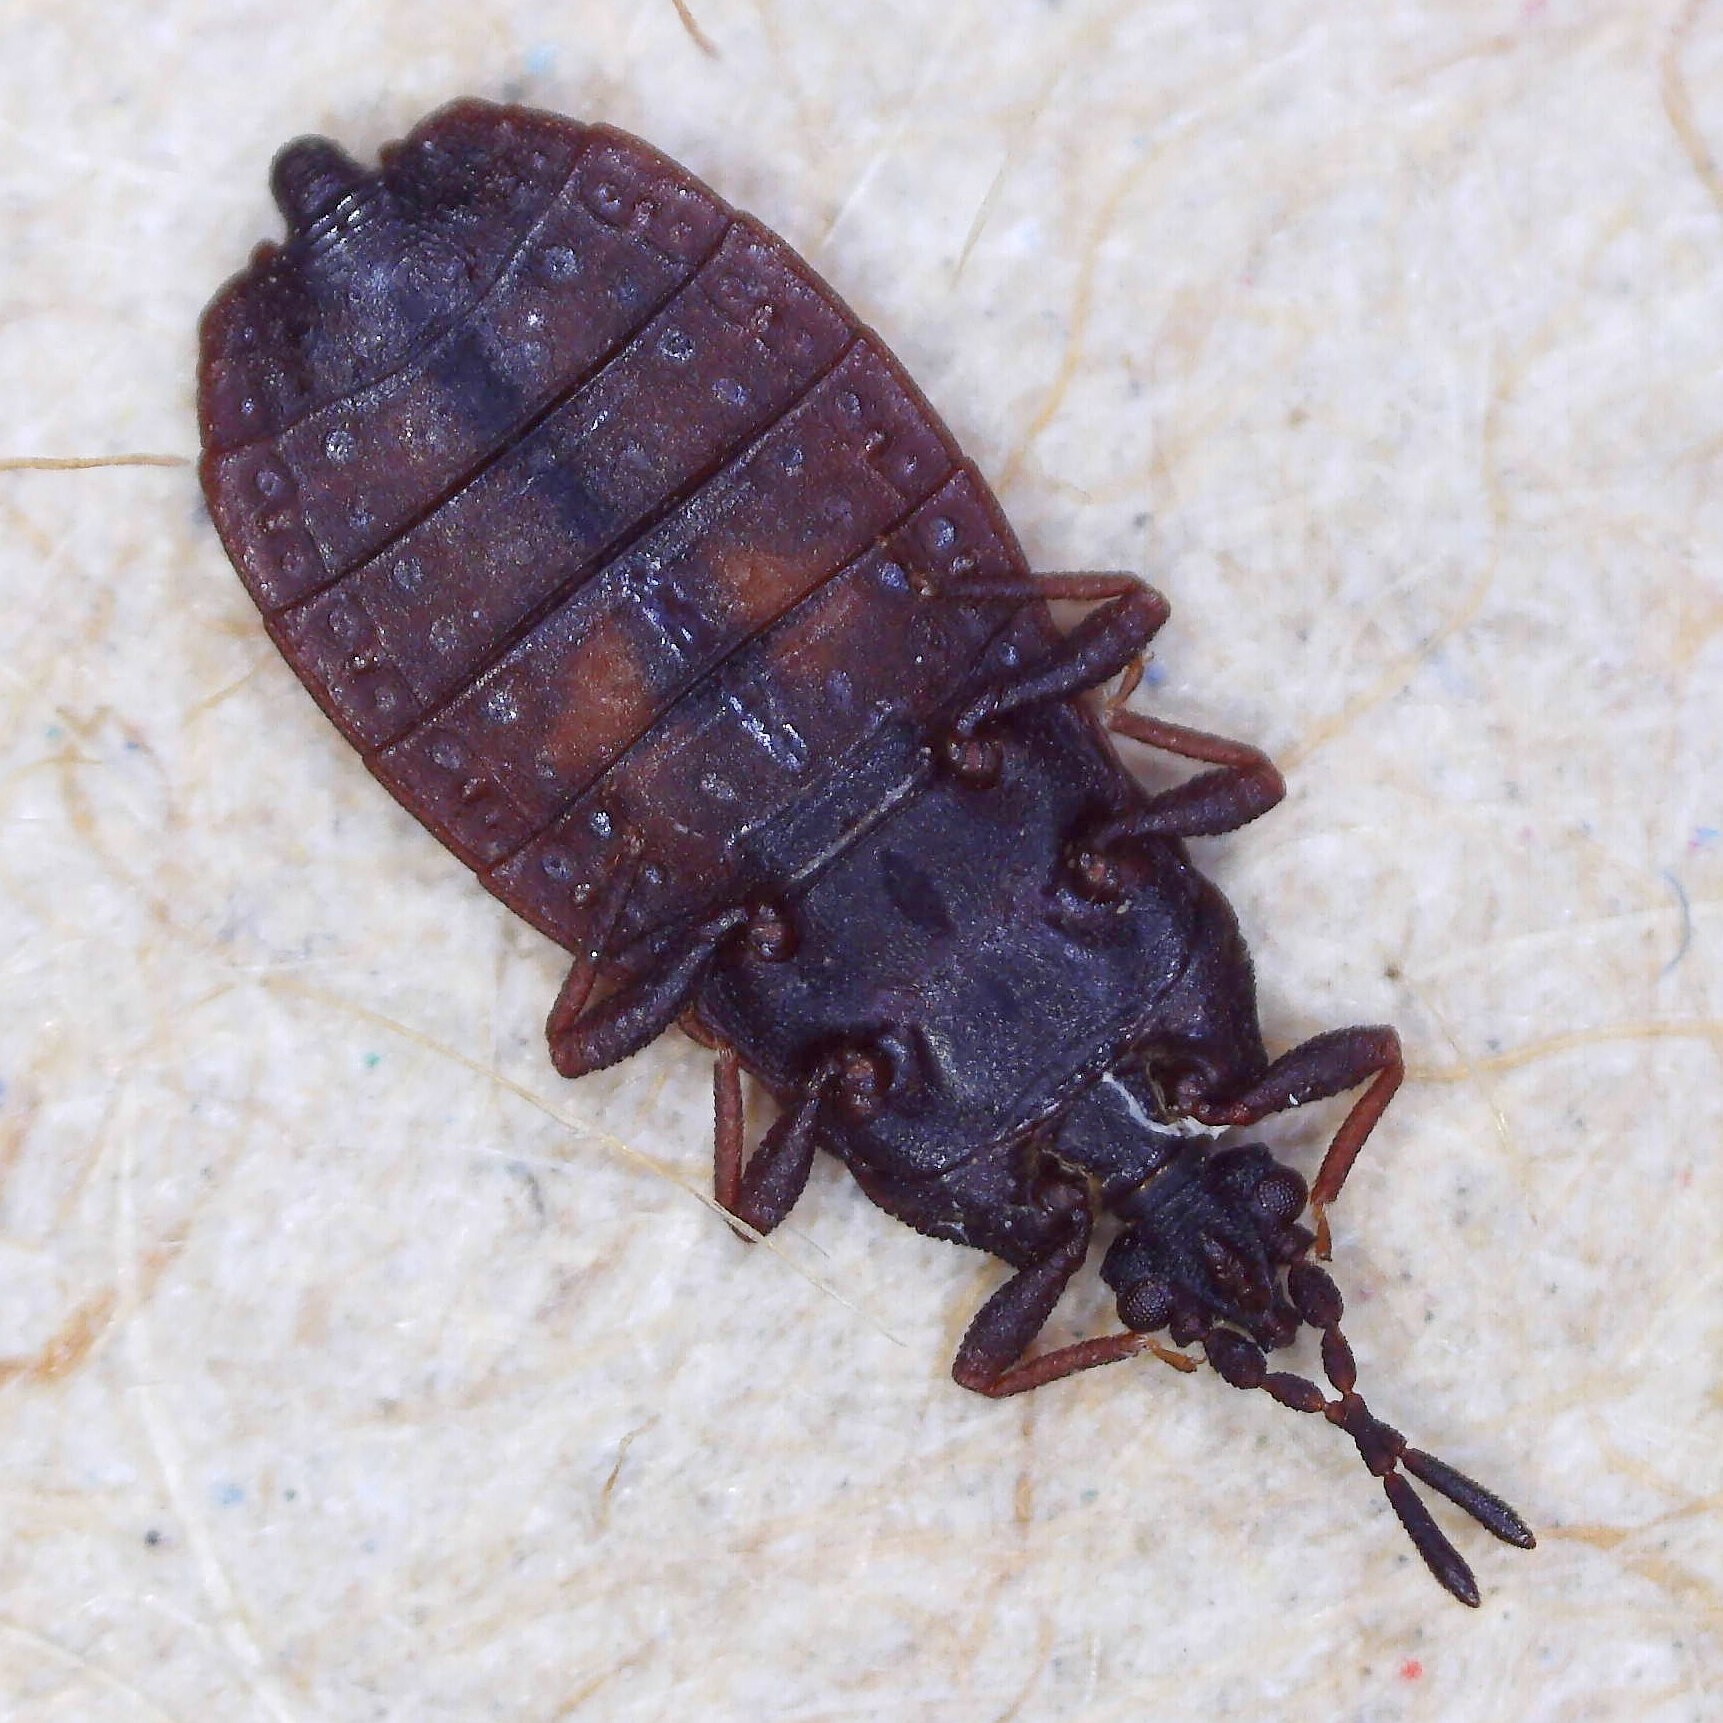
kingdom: Animalia
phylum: Arthropoda
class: Insecta
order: Hemiptera
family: Aradidae
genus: Aneurus
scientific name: Aneurus avenius
